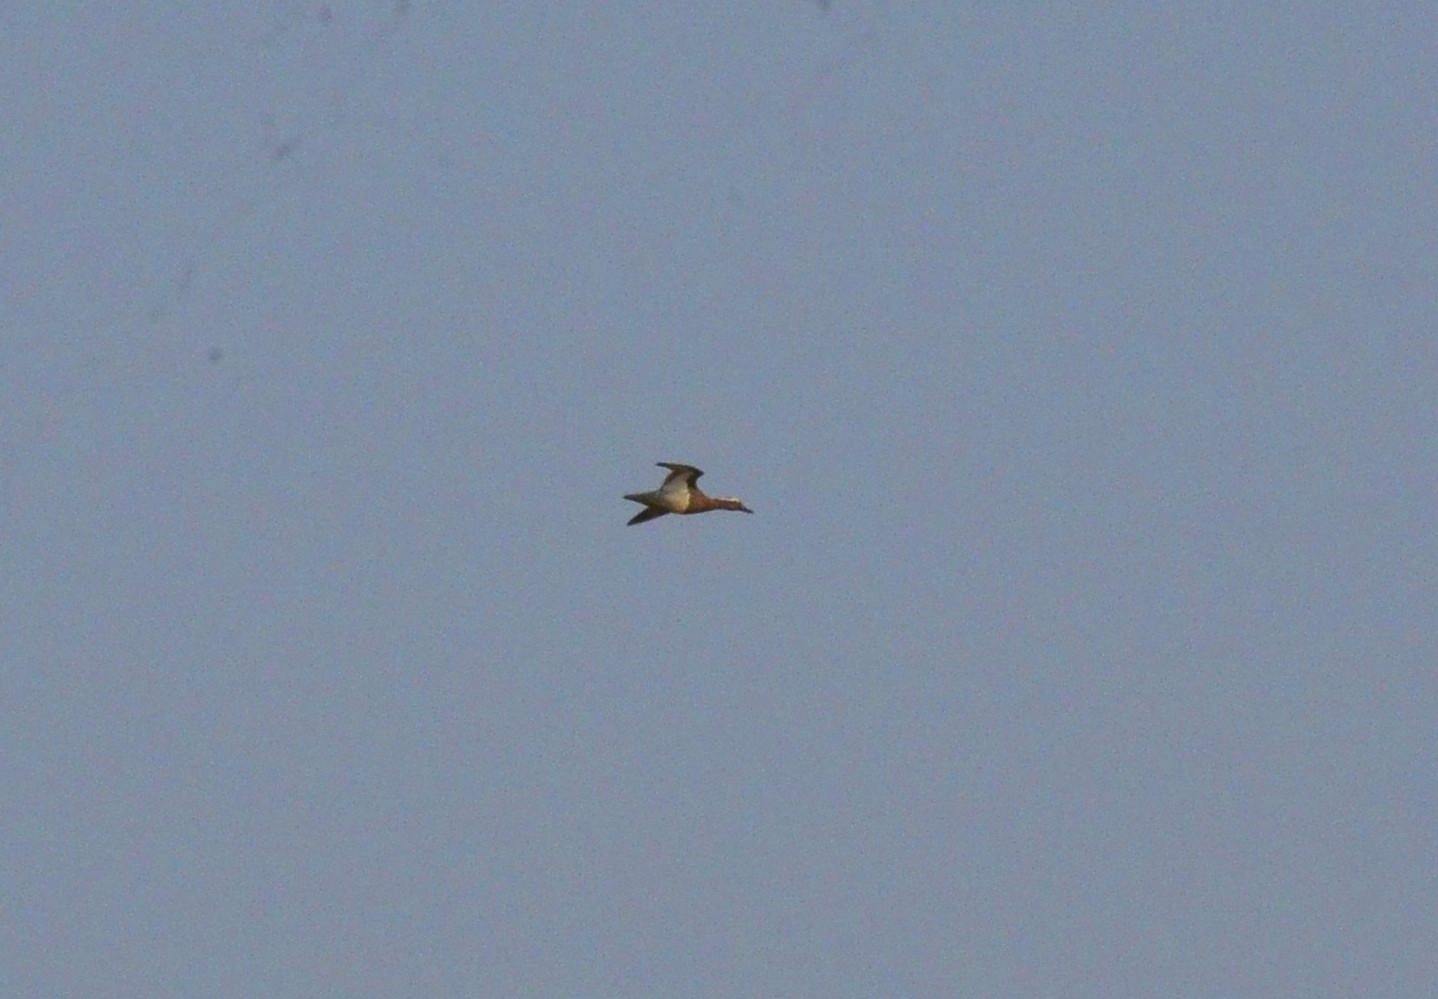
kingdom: Animalia
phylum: Chordata
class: Aves
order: Anseriformes
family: Anatidae
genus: Spatula
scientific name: Spatula querquedula
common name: Garganey
